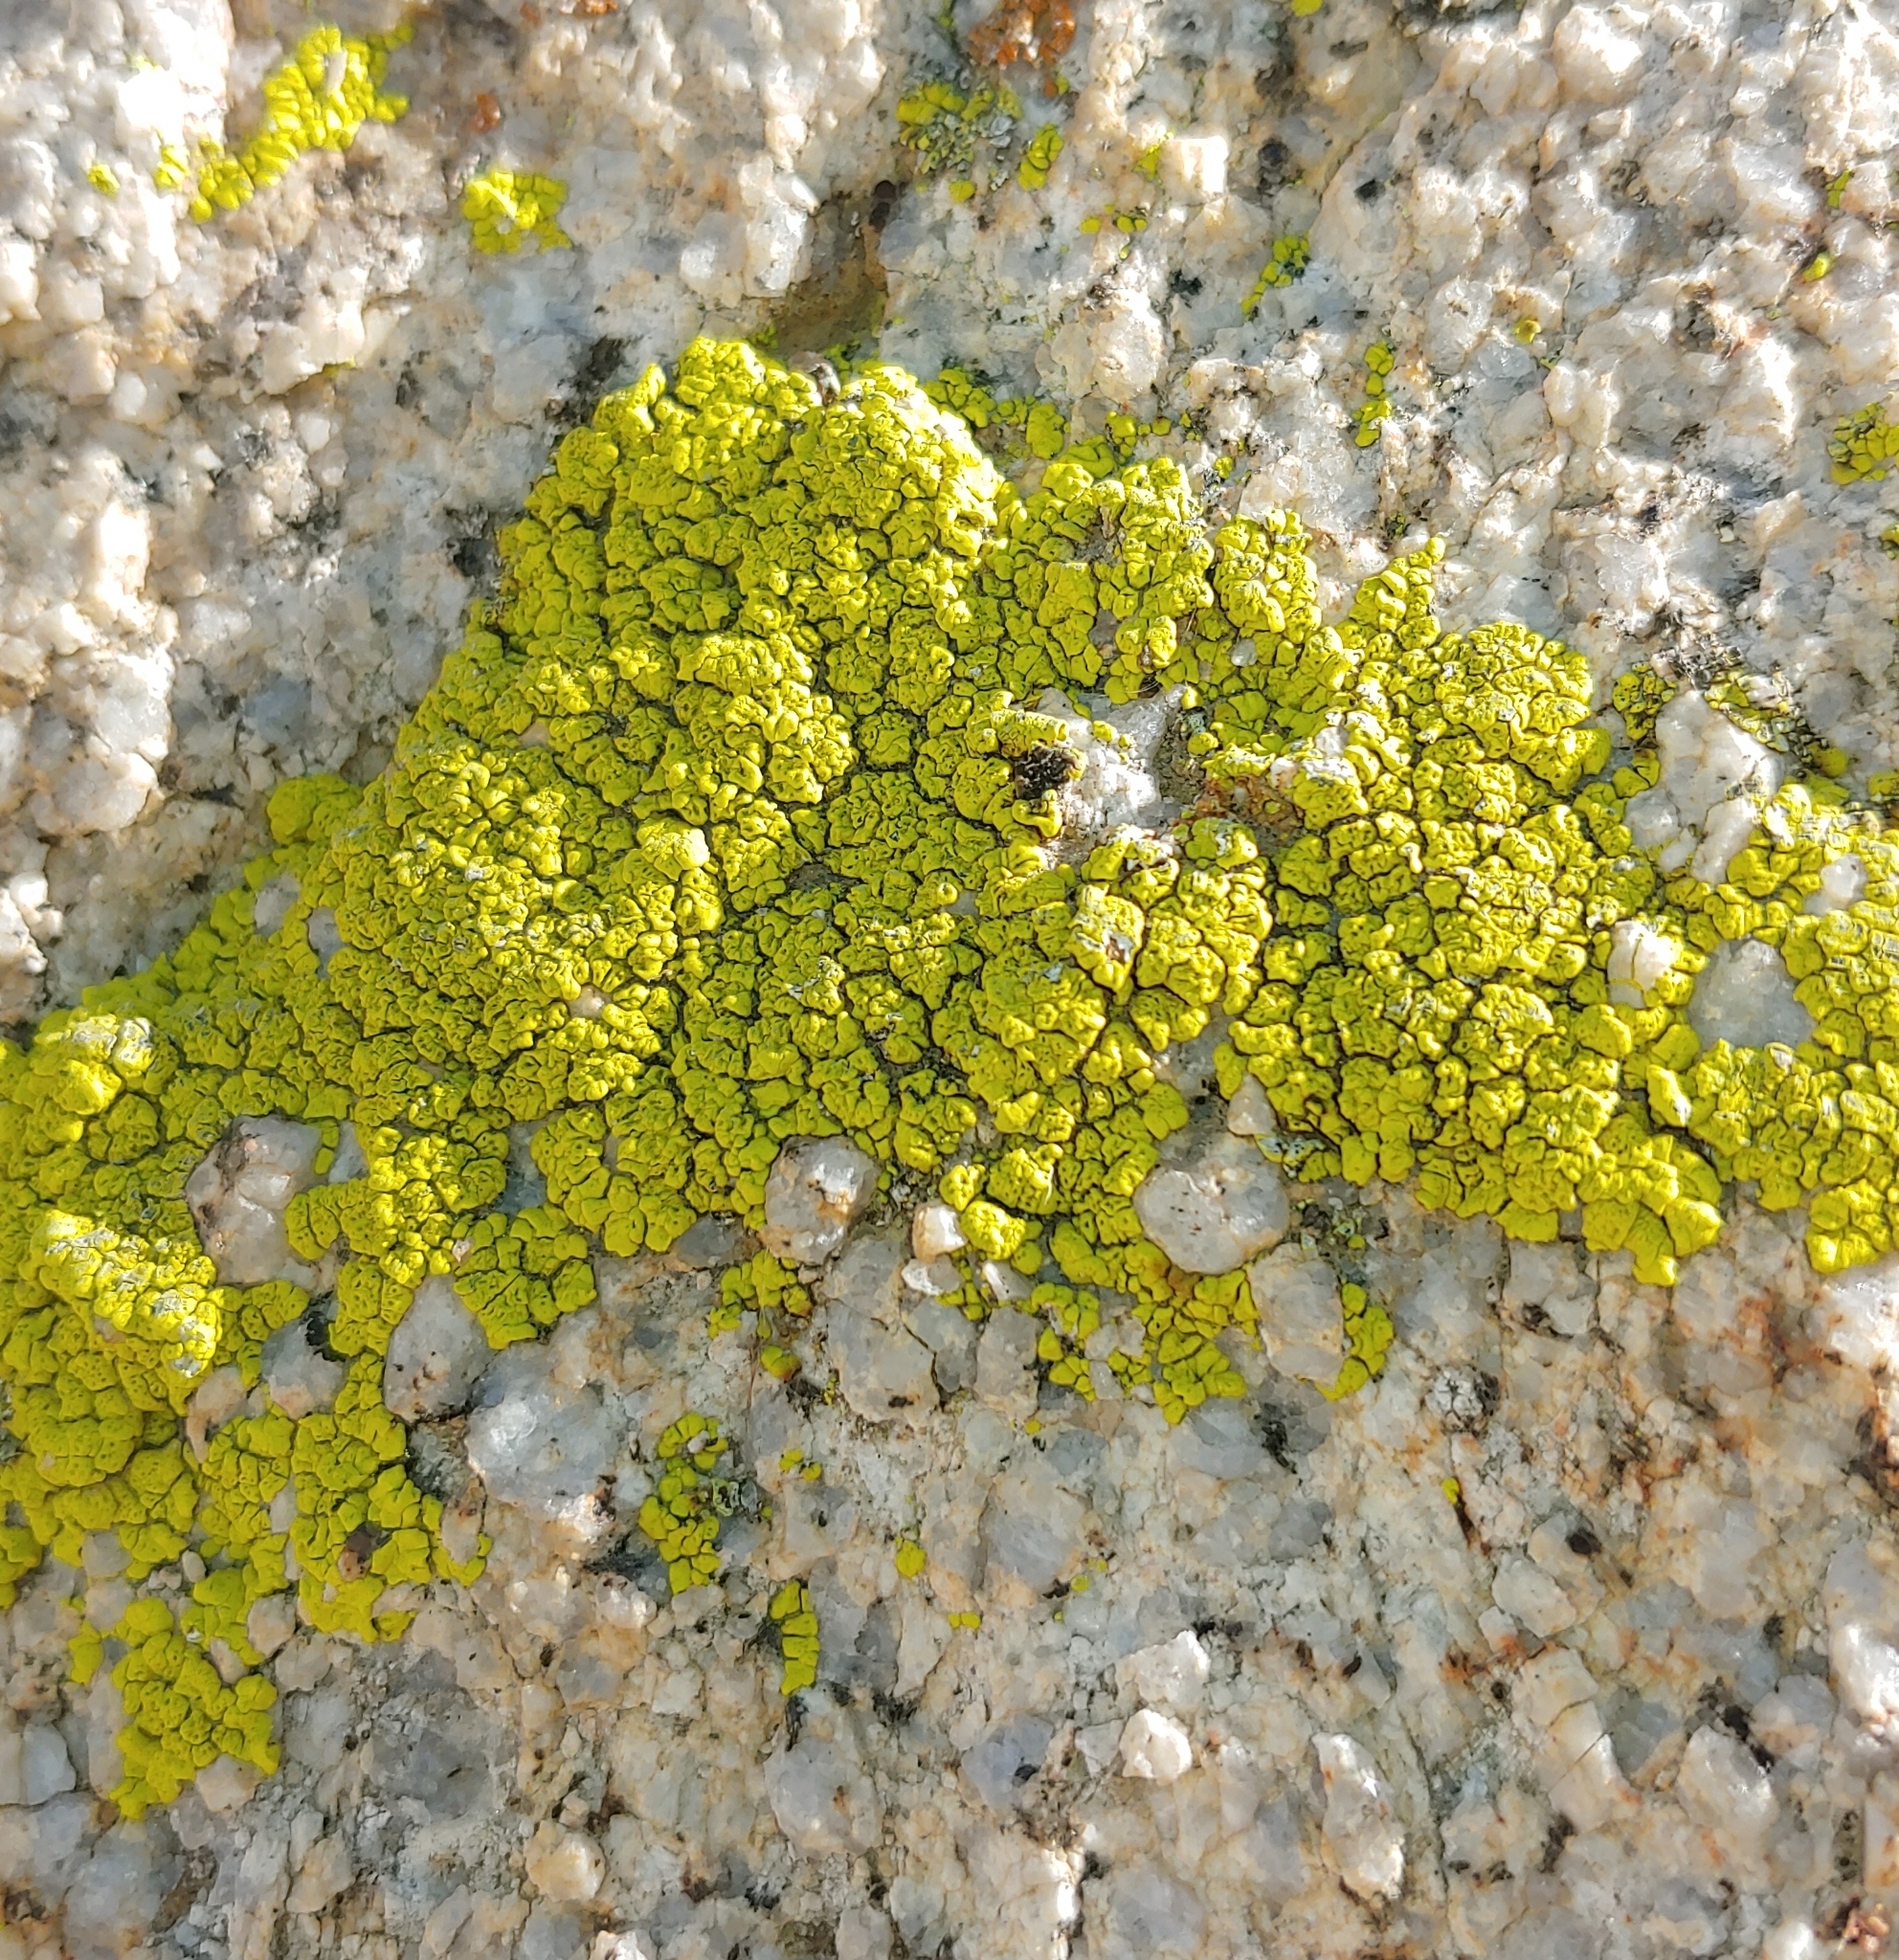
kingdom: Fungi
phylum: Ascomycota
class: Lecanoromycetes
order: Acarosporales
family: Acarosporaceae
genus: Acarospora
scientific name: Acarospora socialis
